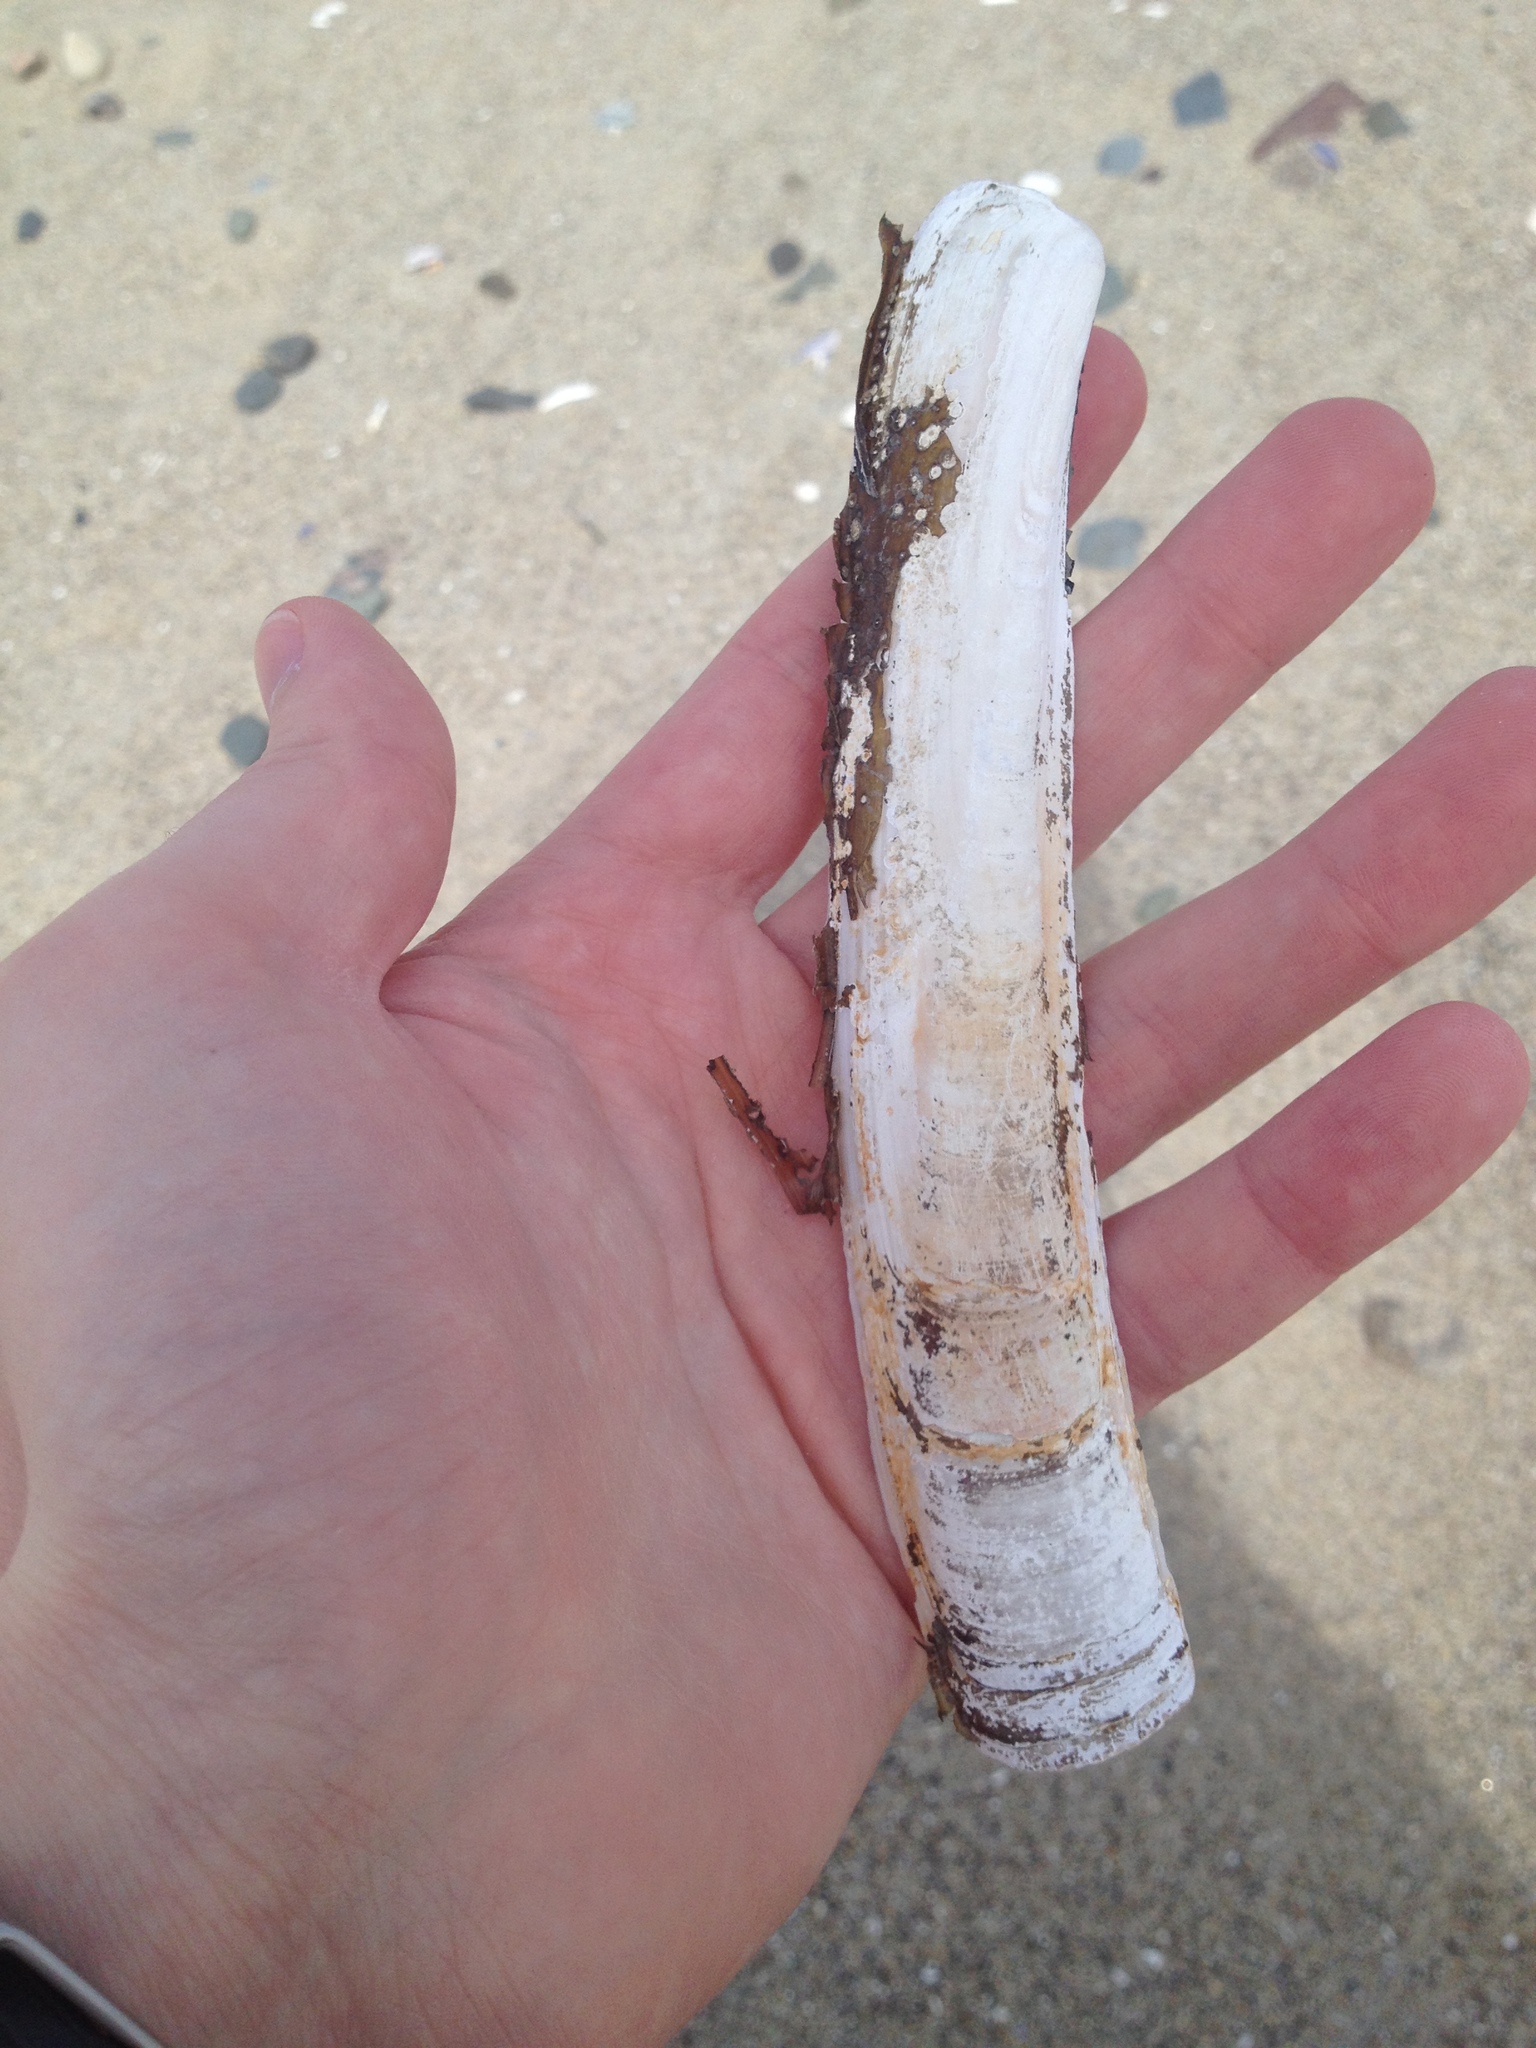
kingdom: Animalia
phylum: Mollusca
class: Bivalvia
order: Adapedonta
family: Pharidae
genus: Ensis
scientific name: Ensis leei
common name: American jack knife clam
